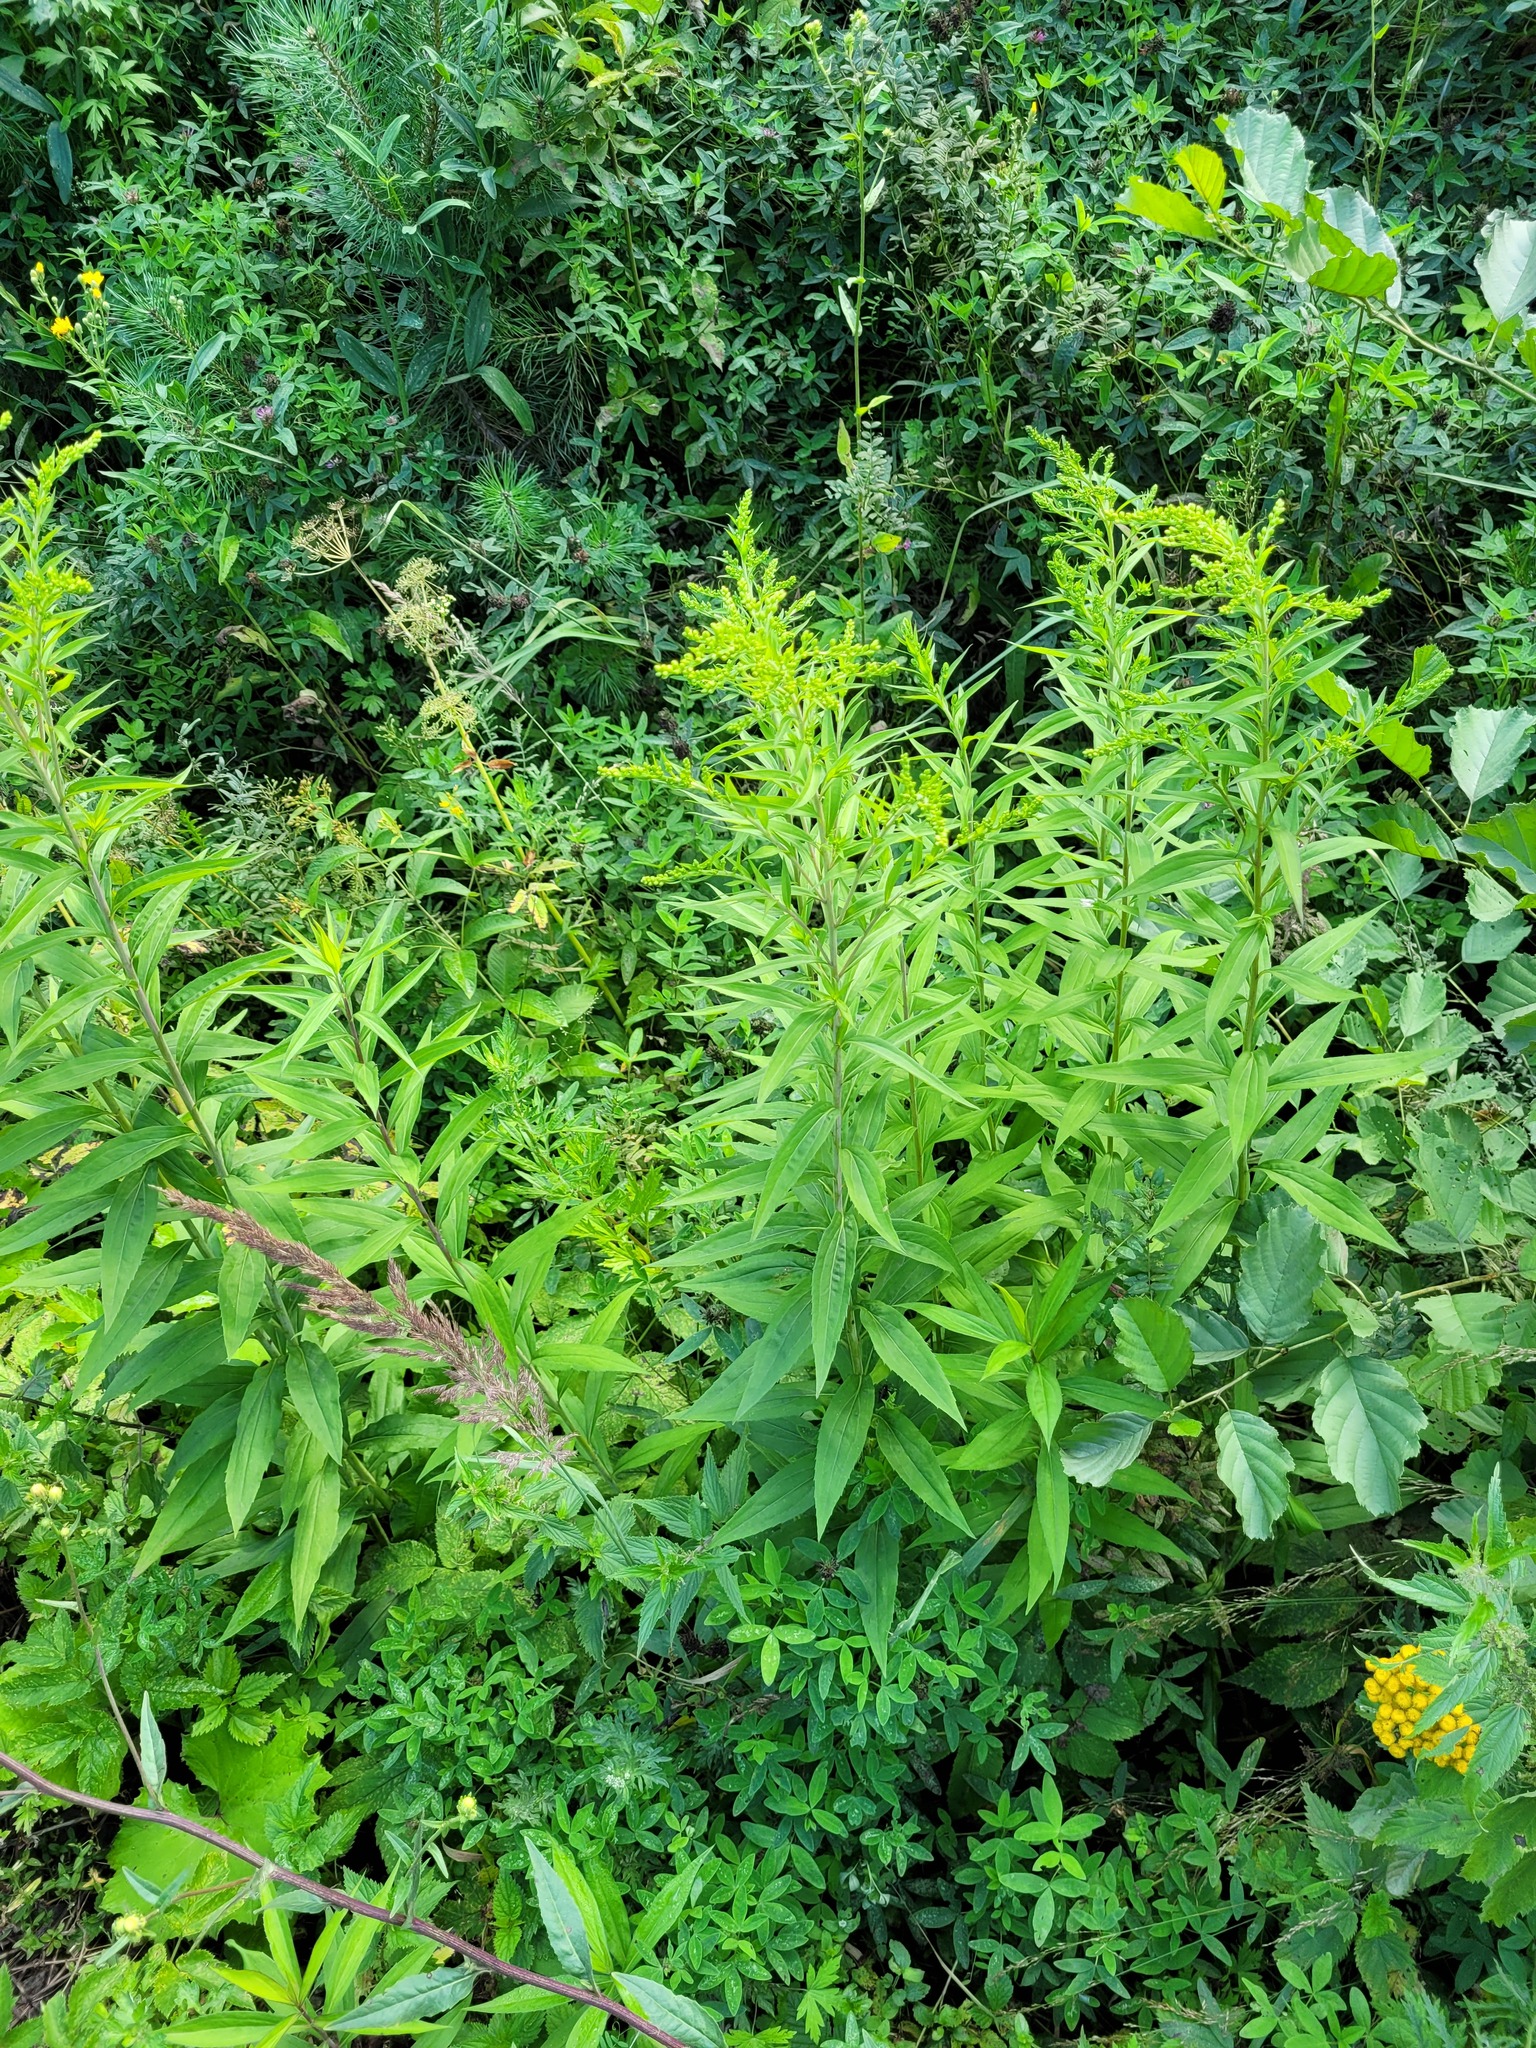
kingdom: Plantae
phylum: Tracheophyta
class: Magnoliopsida
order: Asterales
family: Asteraceae
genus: Solidago
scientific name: Solidago canadensis
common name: Canada goldenrod
